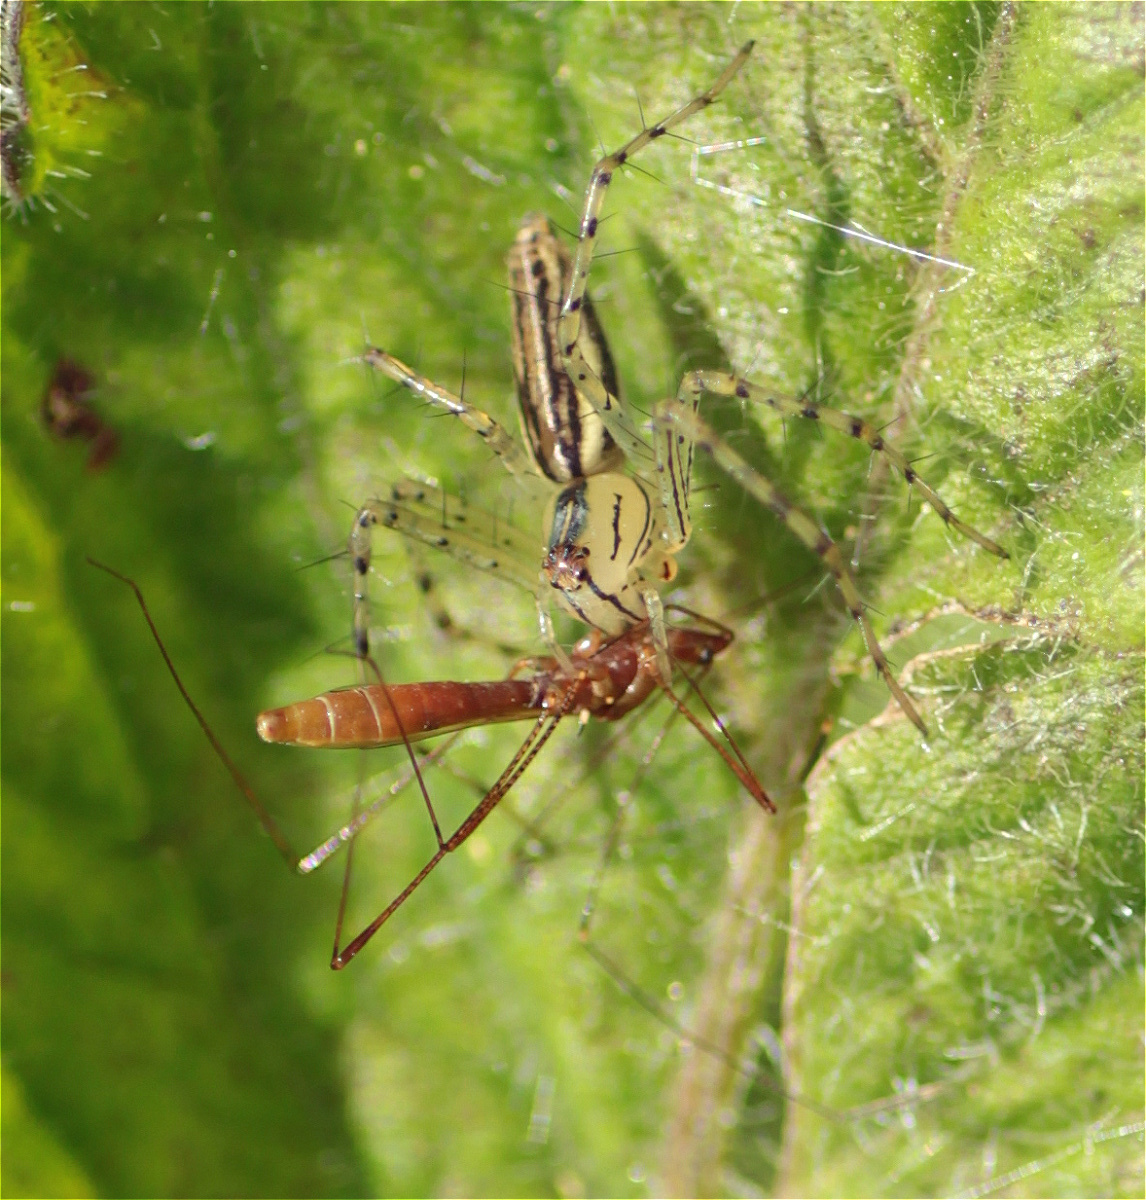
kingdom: Animalia
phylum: Arthropoda
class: Arachnida
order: Araneae
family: Oxyopidae
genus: Peucetia
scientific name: Peucetia rubrolineata
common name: Lynx spiders
